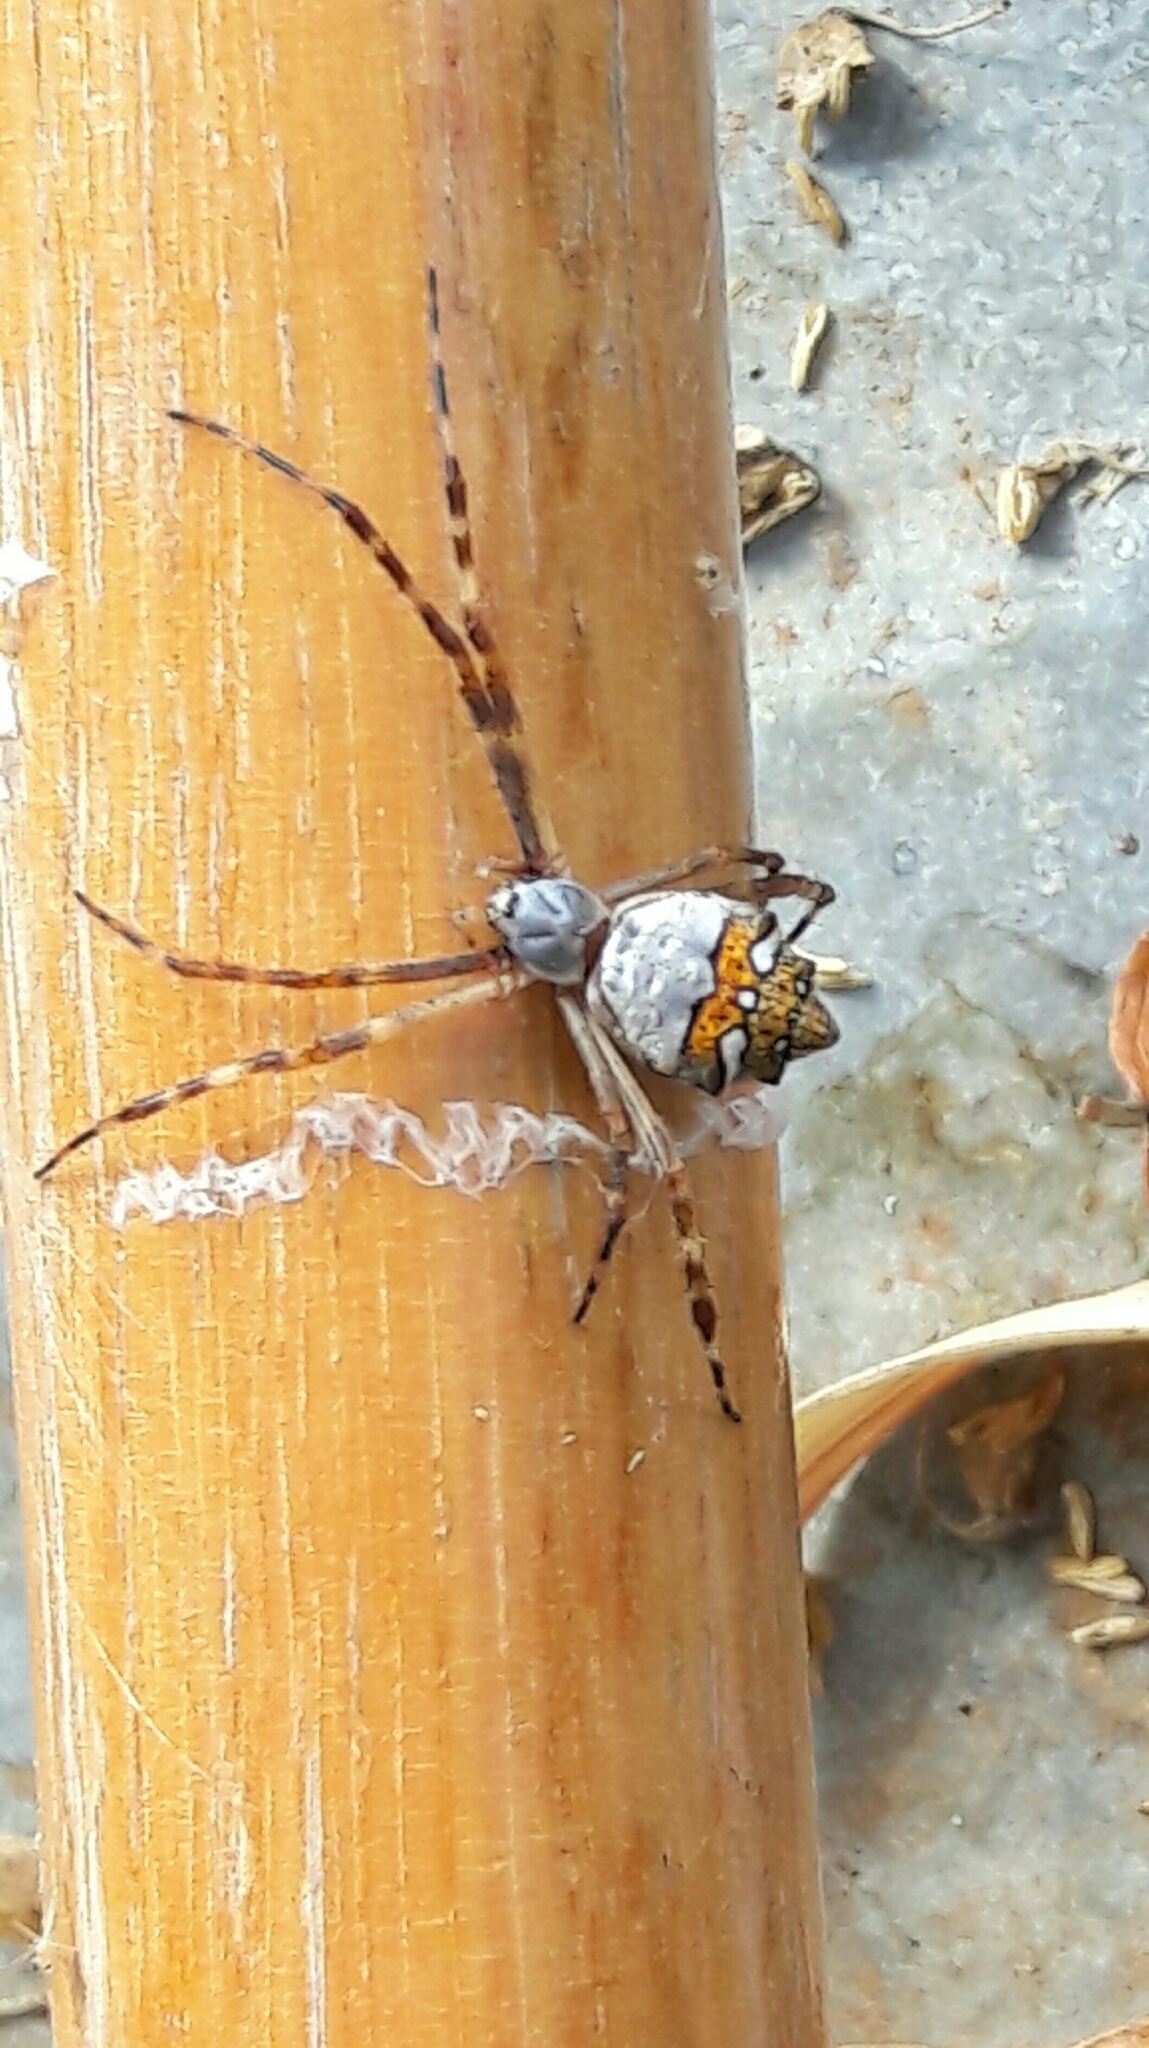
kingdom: Animalia
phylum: Arthropoda
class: Arachnida
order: Araneae
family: Araneidae
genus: Argiope
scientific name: Argiope argentata
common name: Orb weavers
